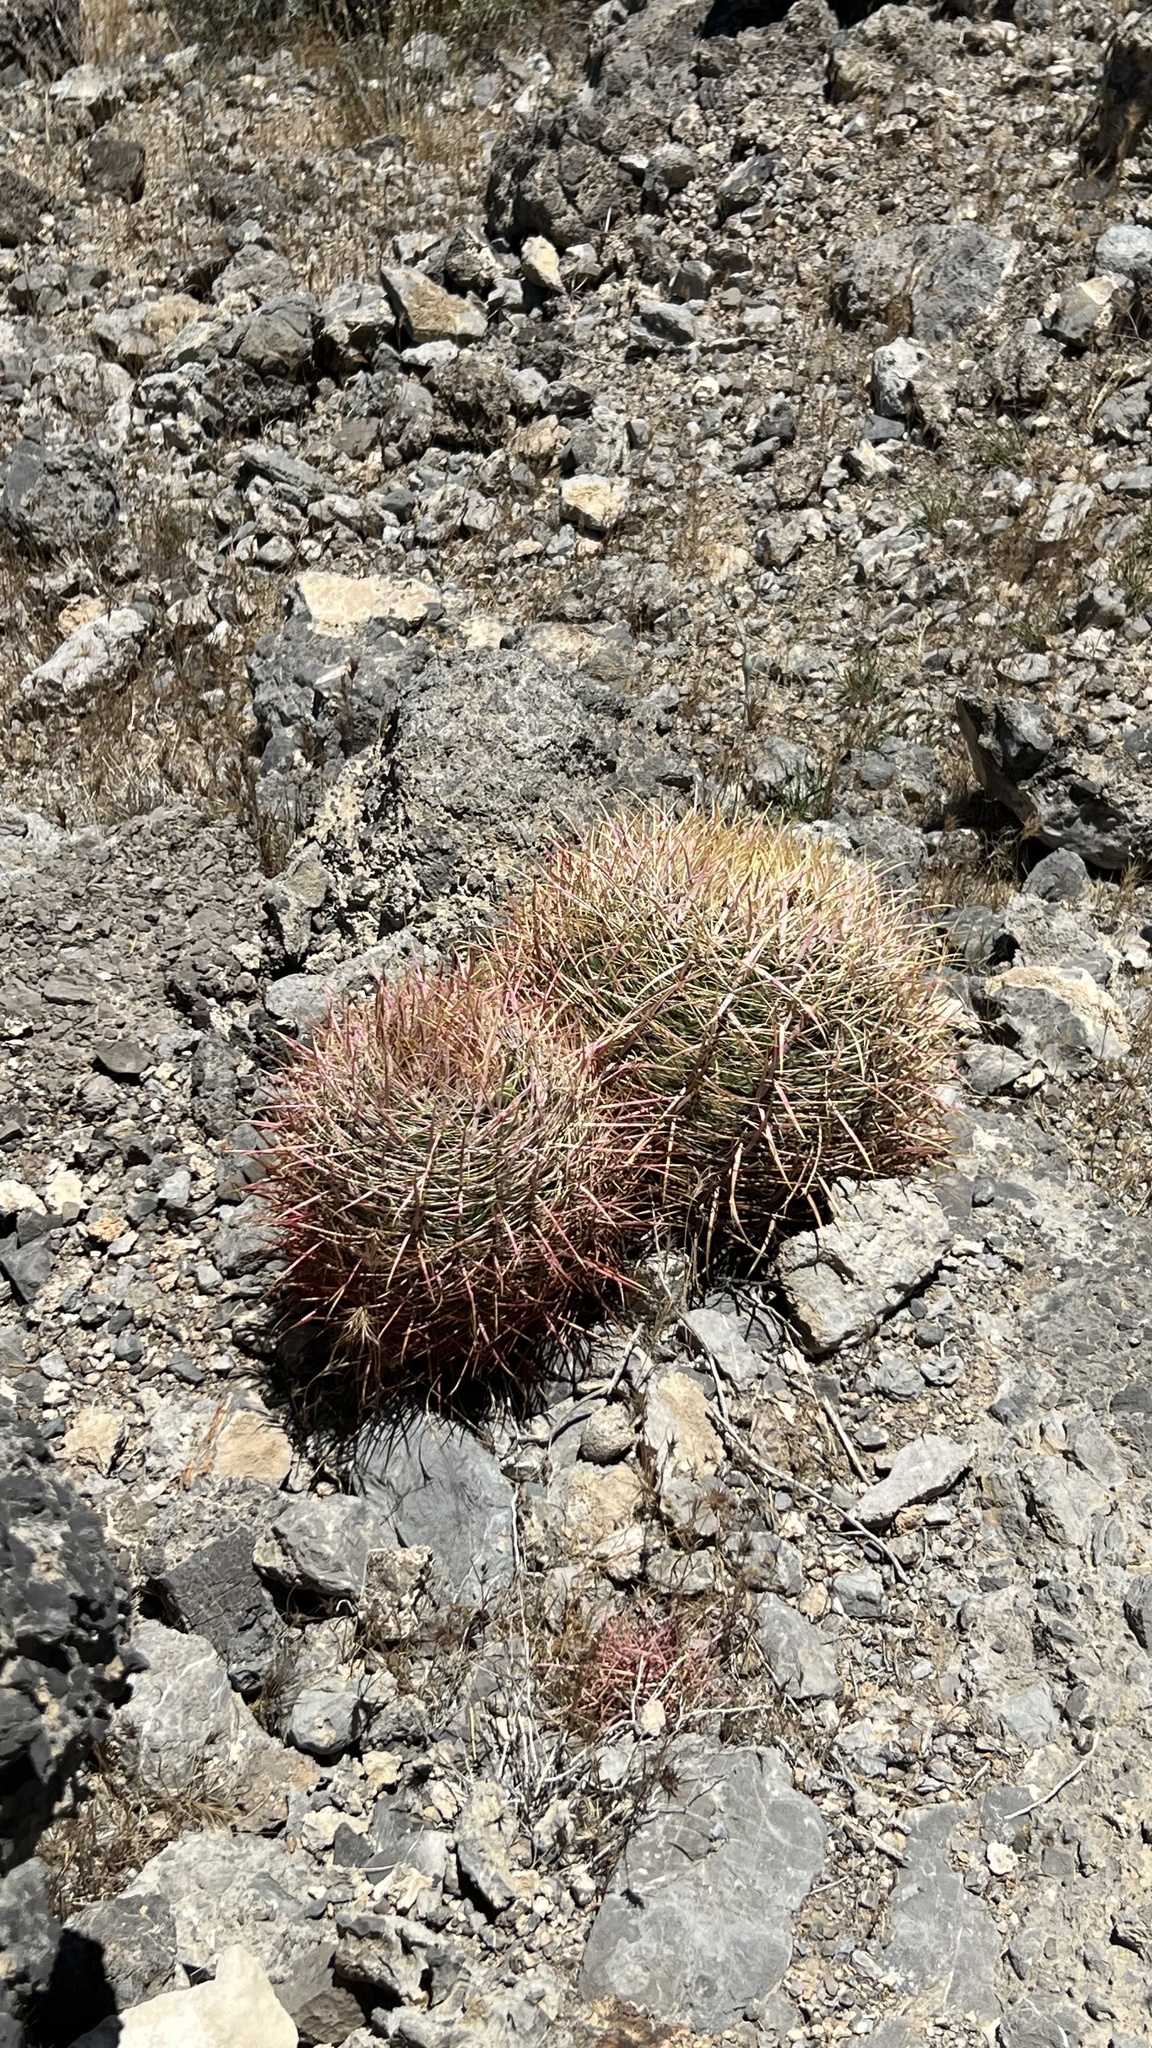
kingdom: Plantae
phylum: Tracheophyta
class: Magnoliopsida
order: Caryophyllales
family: Cactaceae
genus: Ferocactus
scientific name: Ferocactus cylindraceus
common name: California barrel cactus
